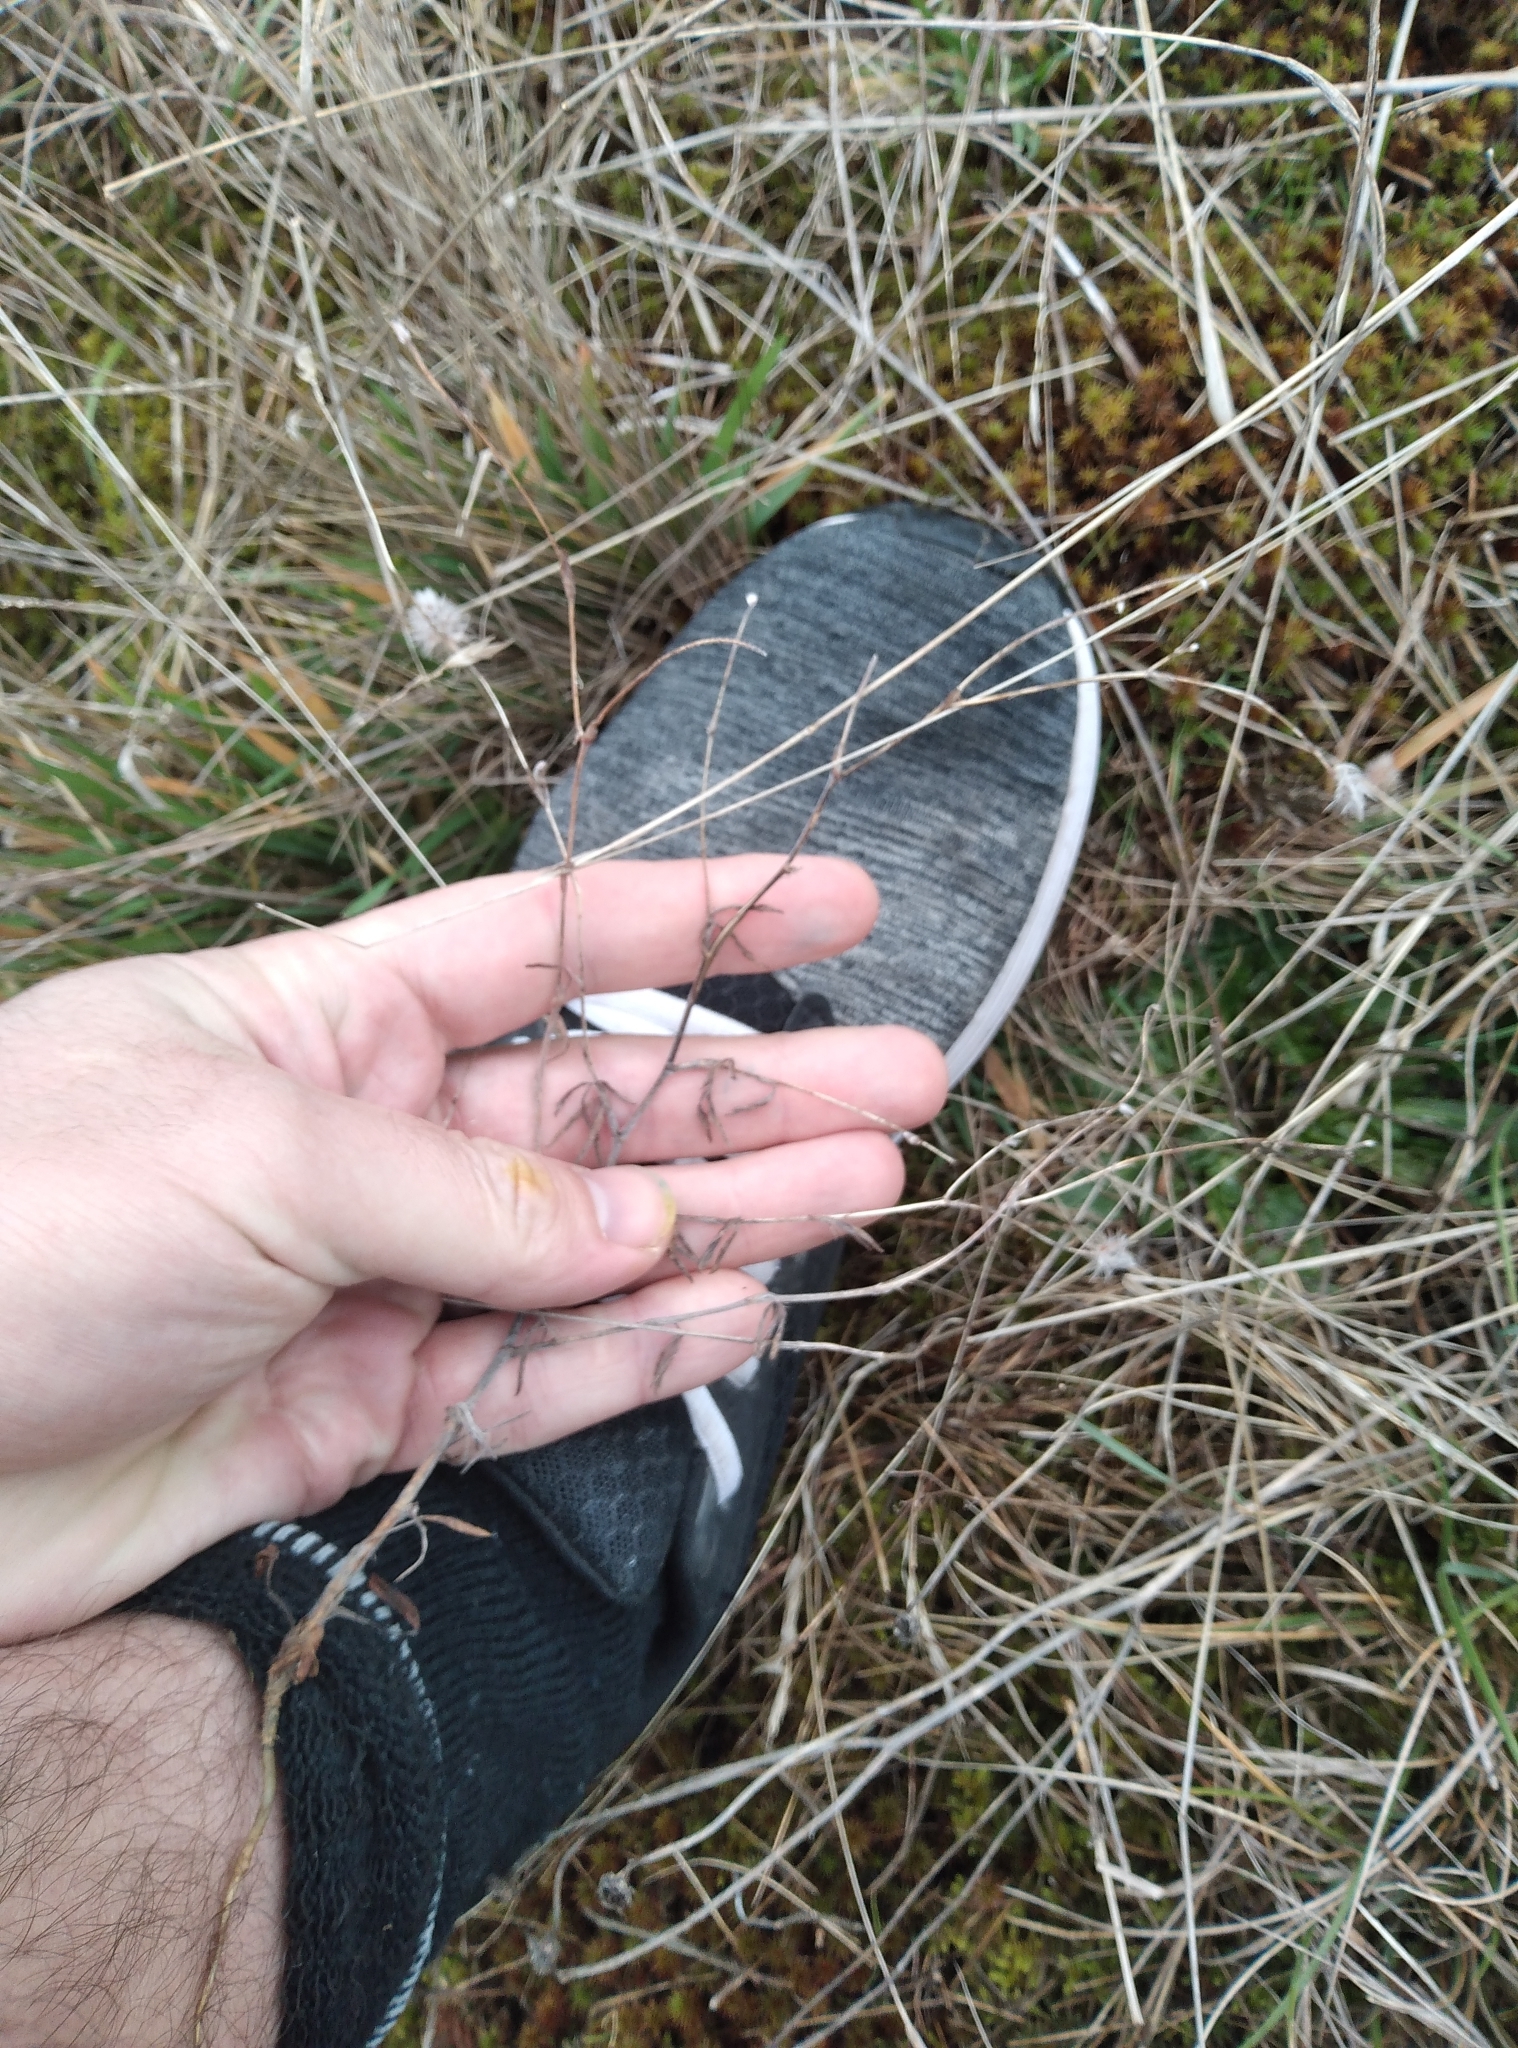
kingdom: Plantae
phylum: Tracheophyta
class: Magnoliopsida
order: Fabales
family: Fabaceae
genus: Trifolium
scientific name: Trifolium arvense
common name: Hare's-foot clover
